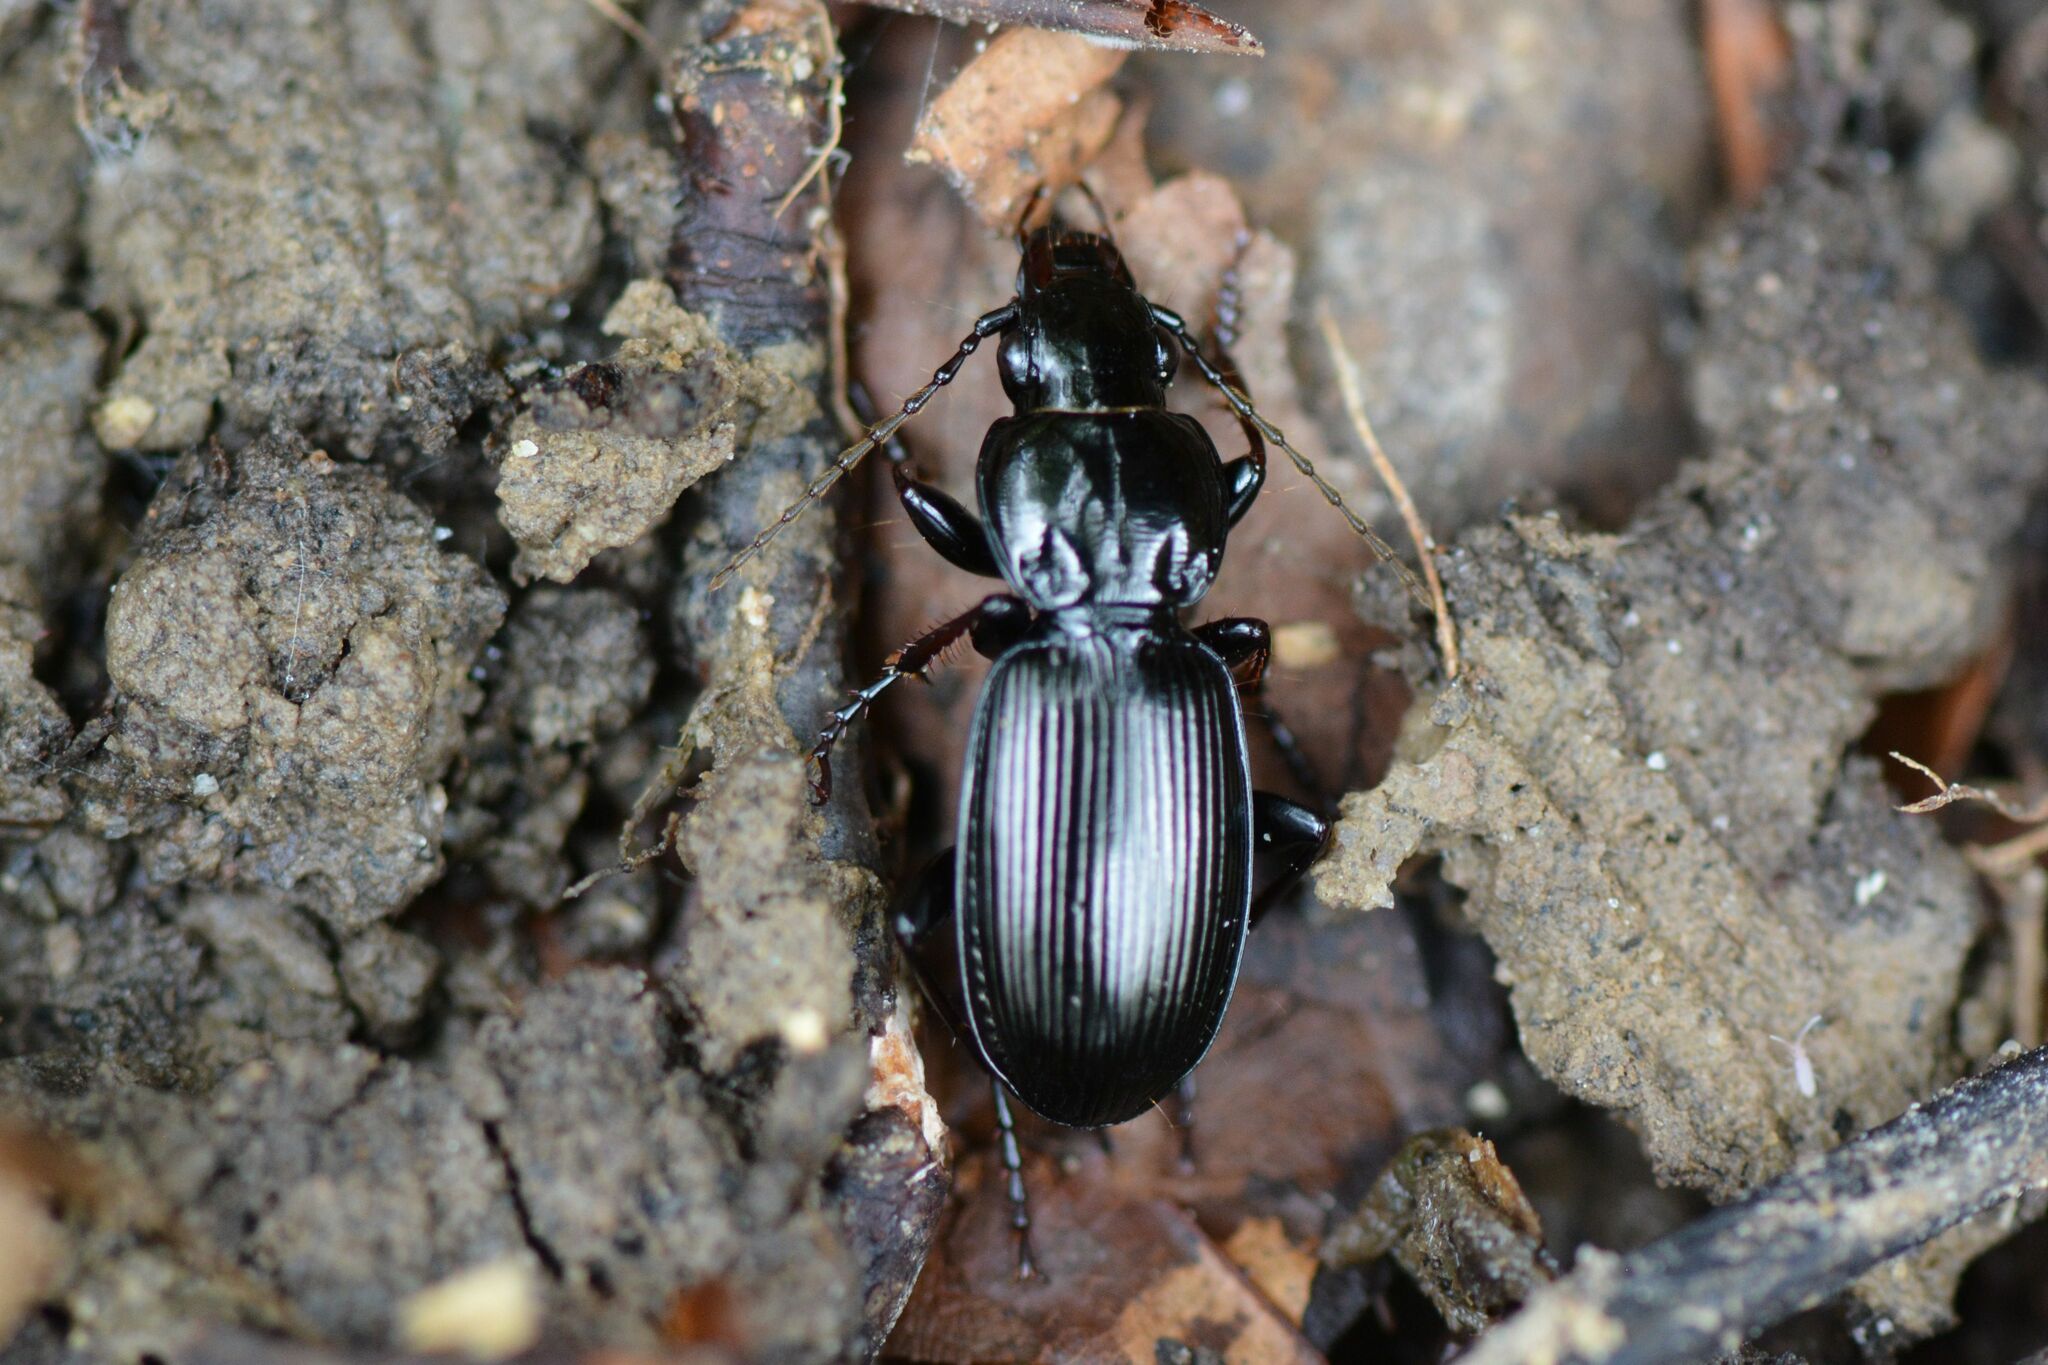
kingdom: Animalia
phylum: Arthropoda
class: Insecta
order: Coleoptera
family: Carabidae
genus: Pterostichus
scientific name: Pterostichus madidus
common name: Black clock
